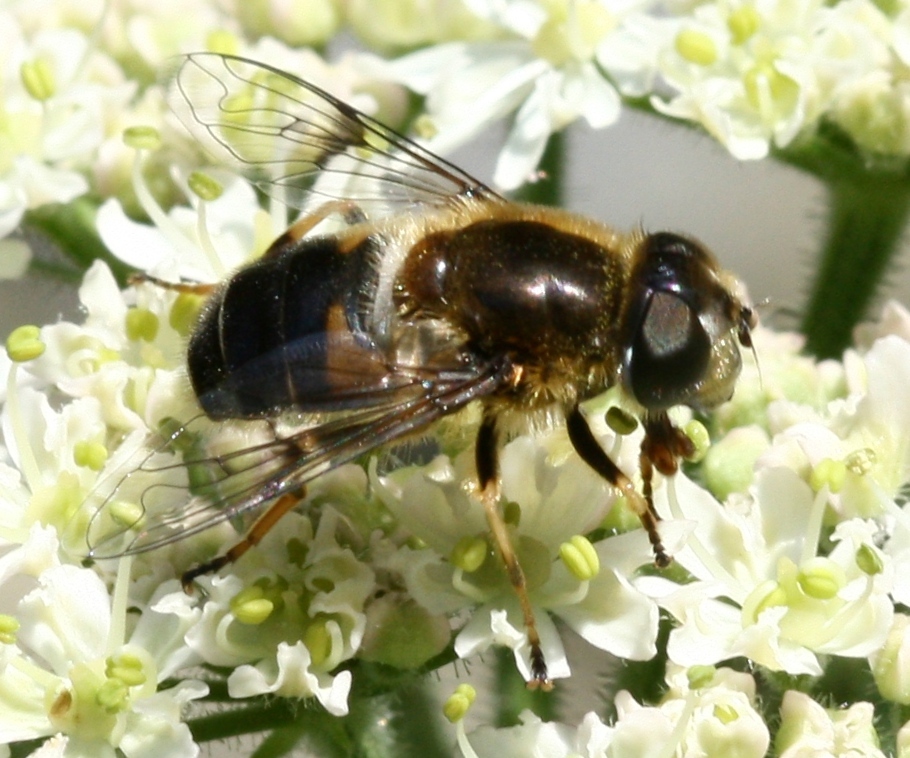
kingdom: Animalia
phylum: Arthropoda
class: Insecta
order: Diptera
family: Syrphidae
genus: Eristalis
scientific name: Eristalis rupium
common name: Hover fly
